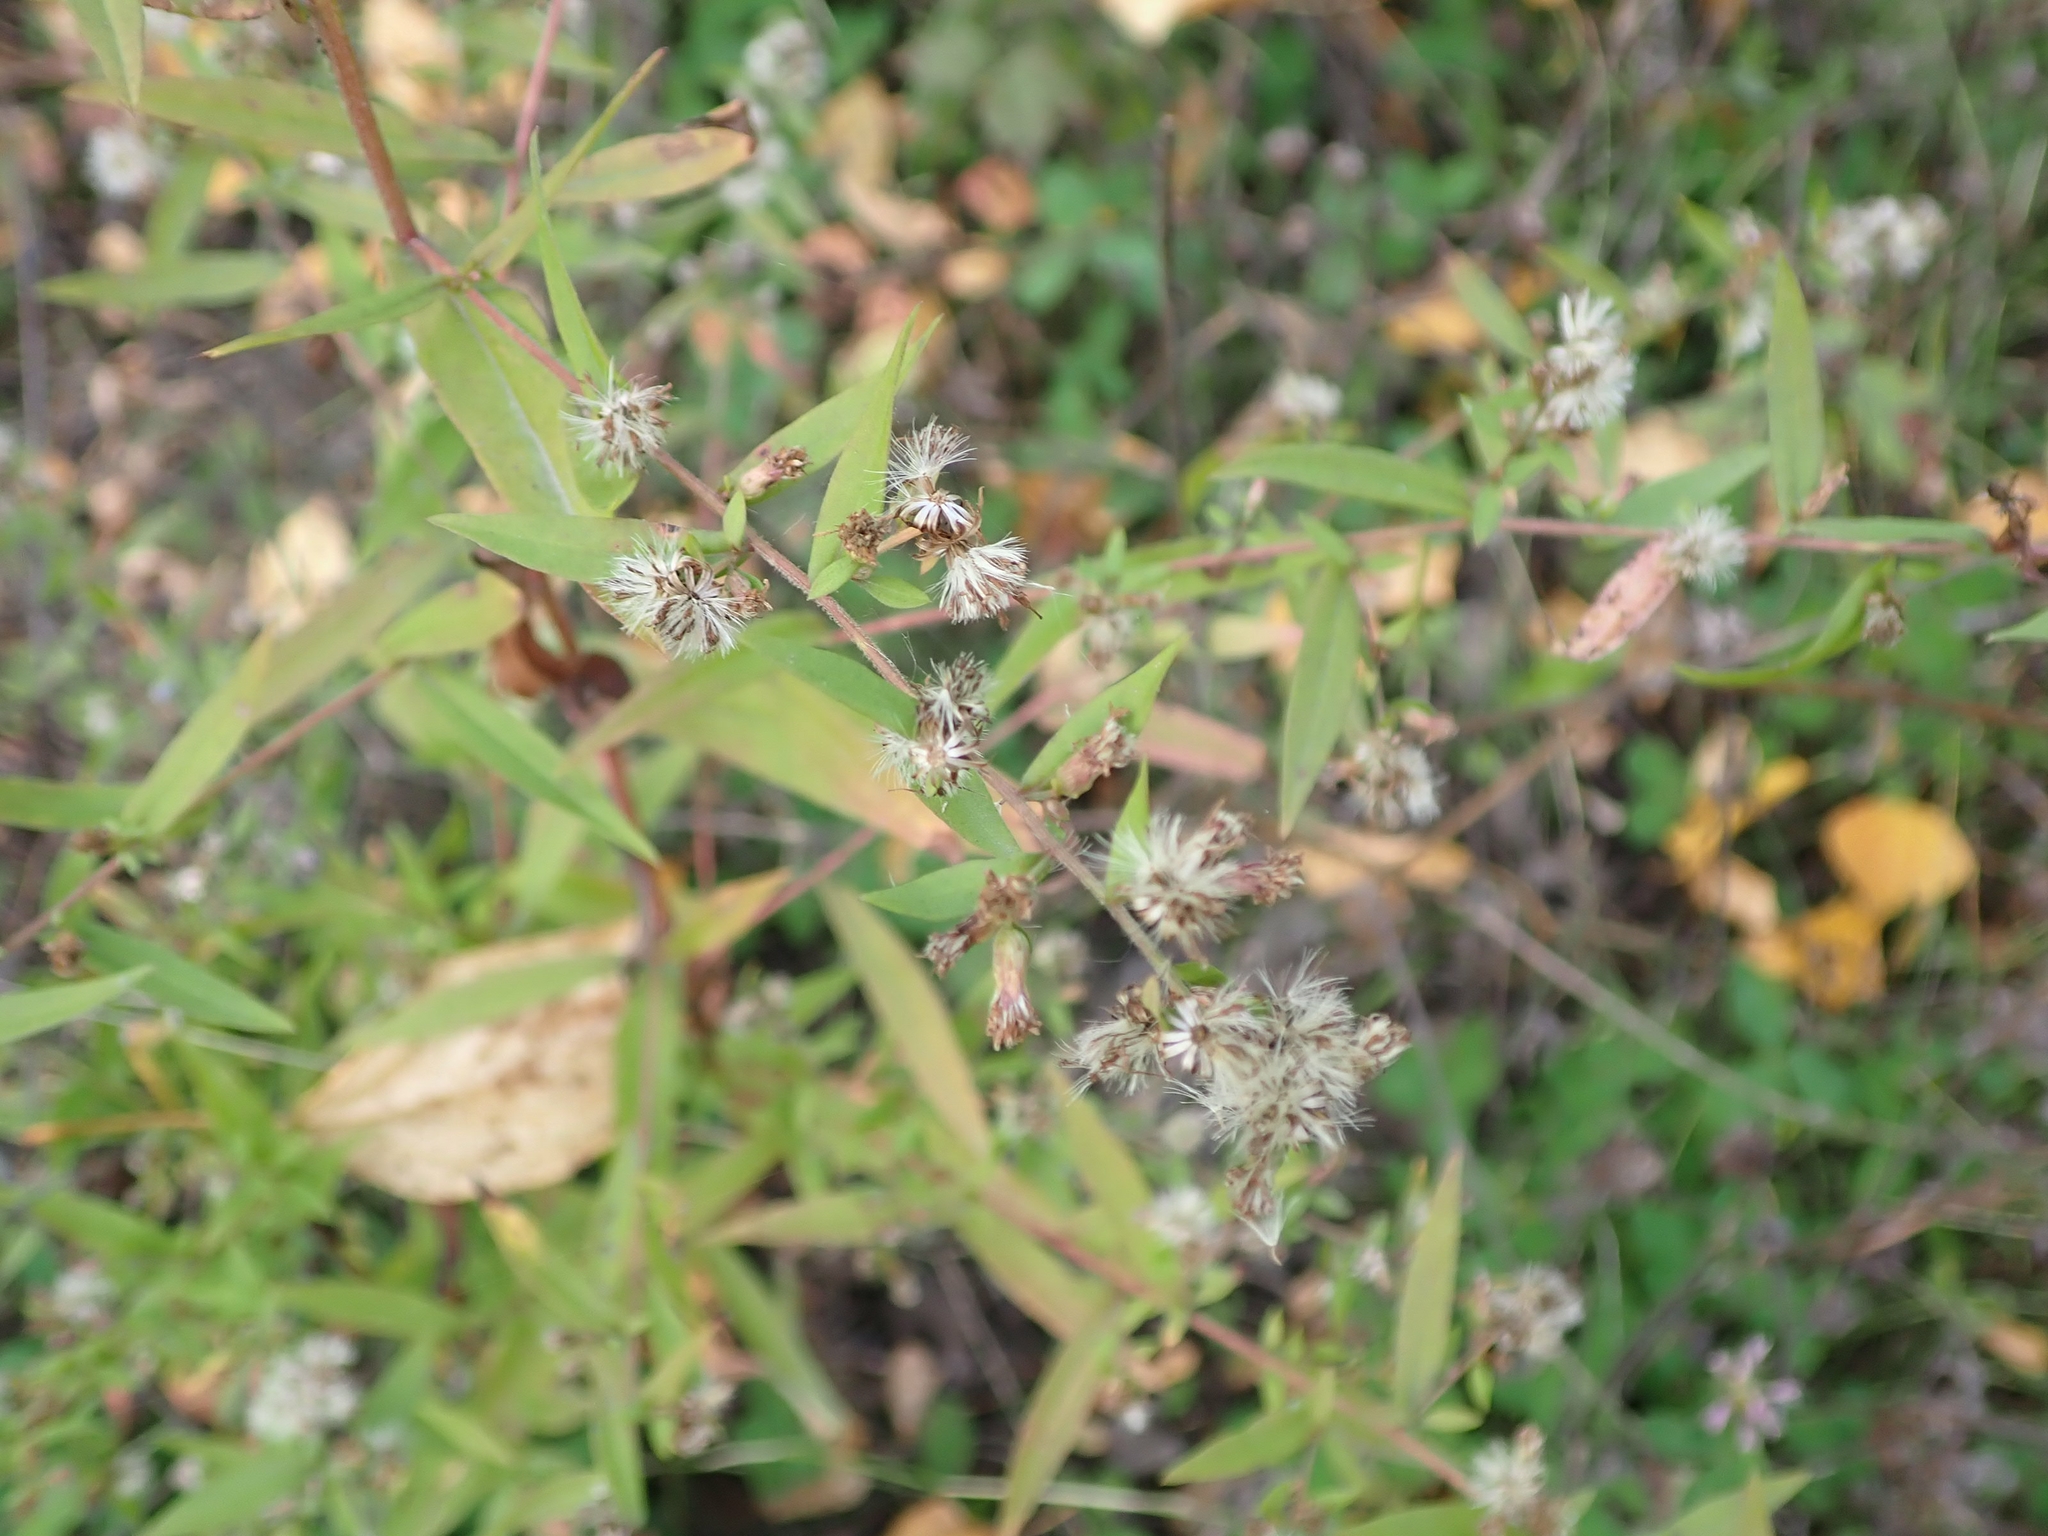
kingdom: Plantae
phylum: Tracheophyta
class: Magnoliopsida
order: Asterales
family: Asteraceae
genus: Symphyotrichum
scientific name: Symphyotrichum lateriflorum
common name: Calico aster
